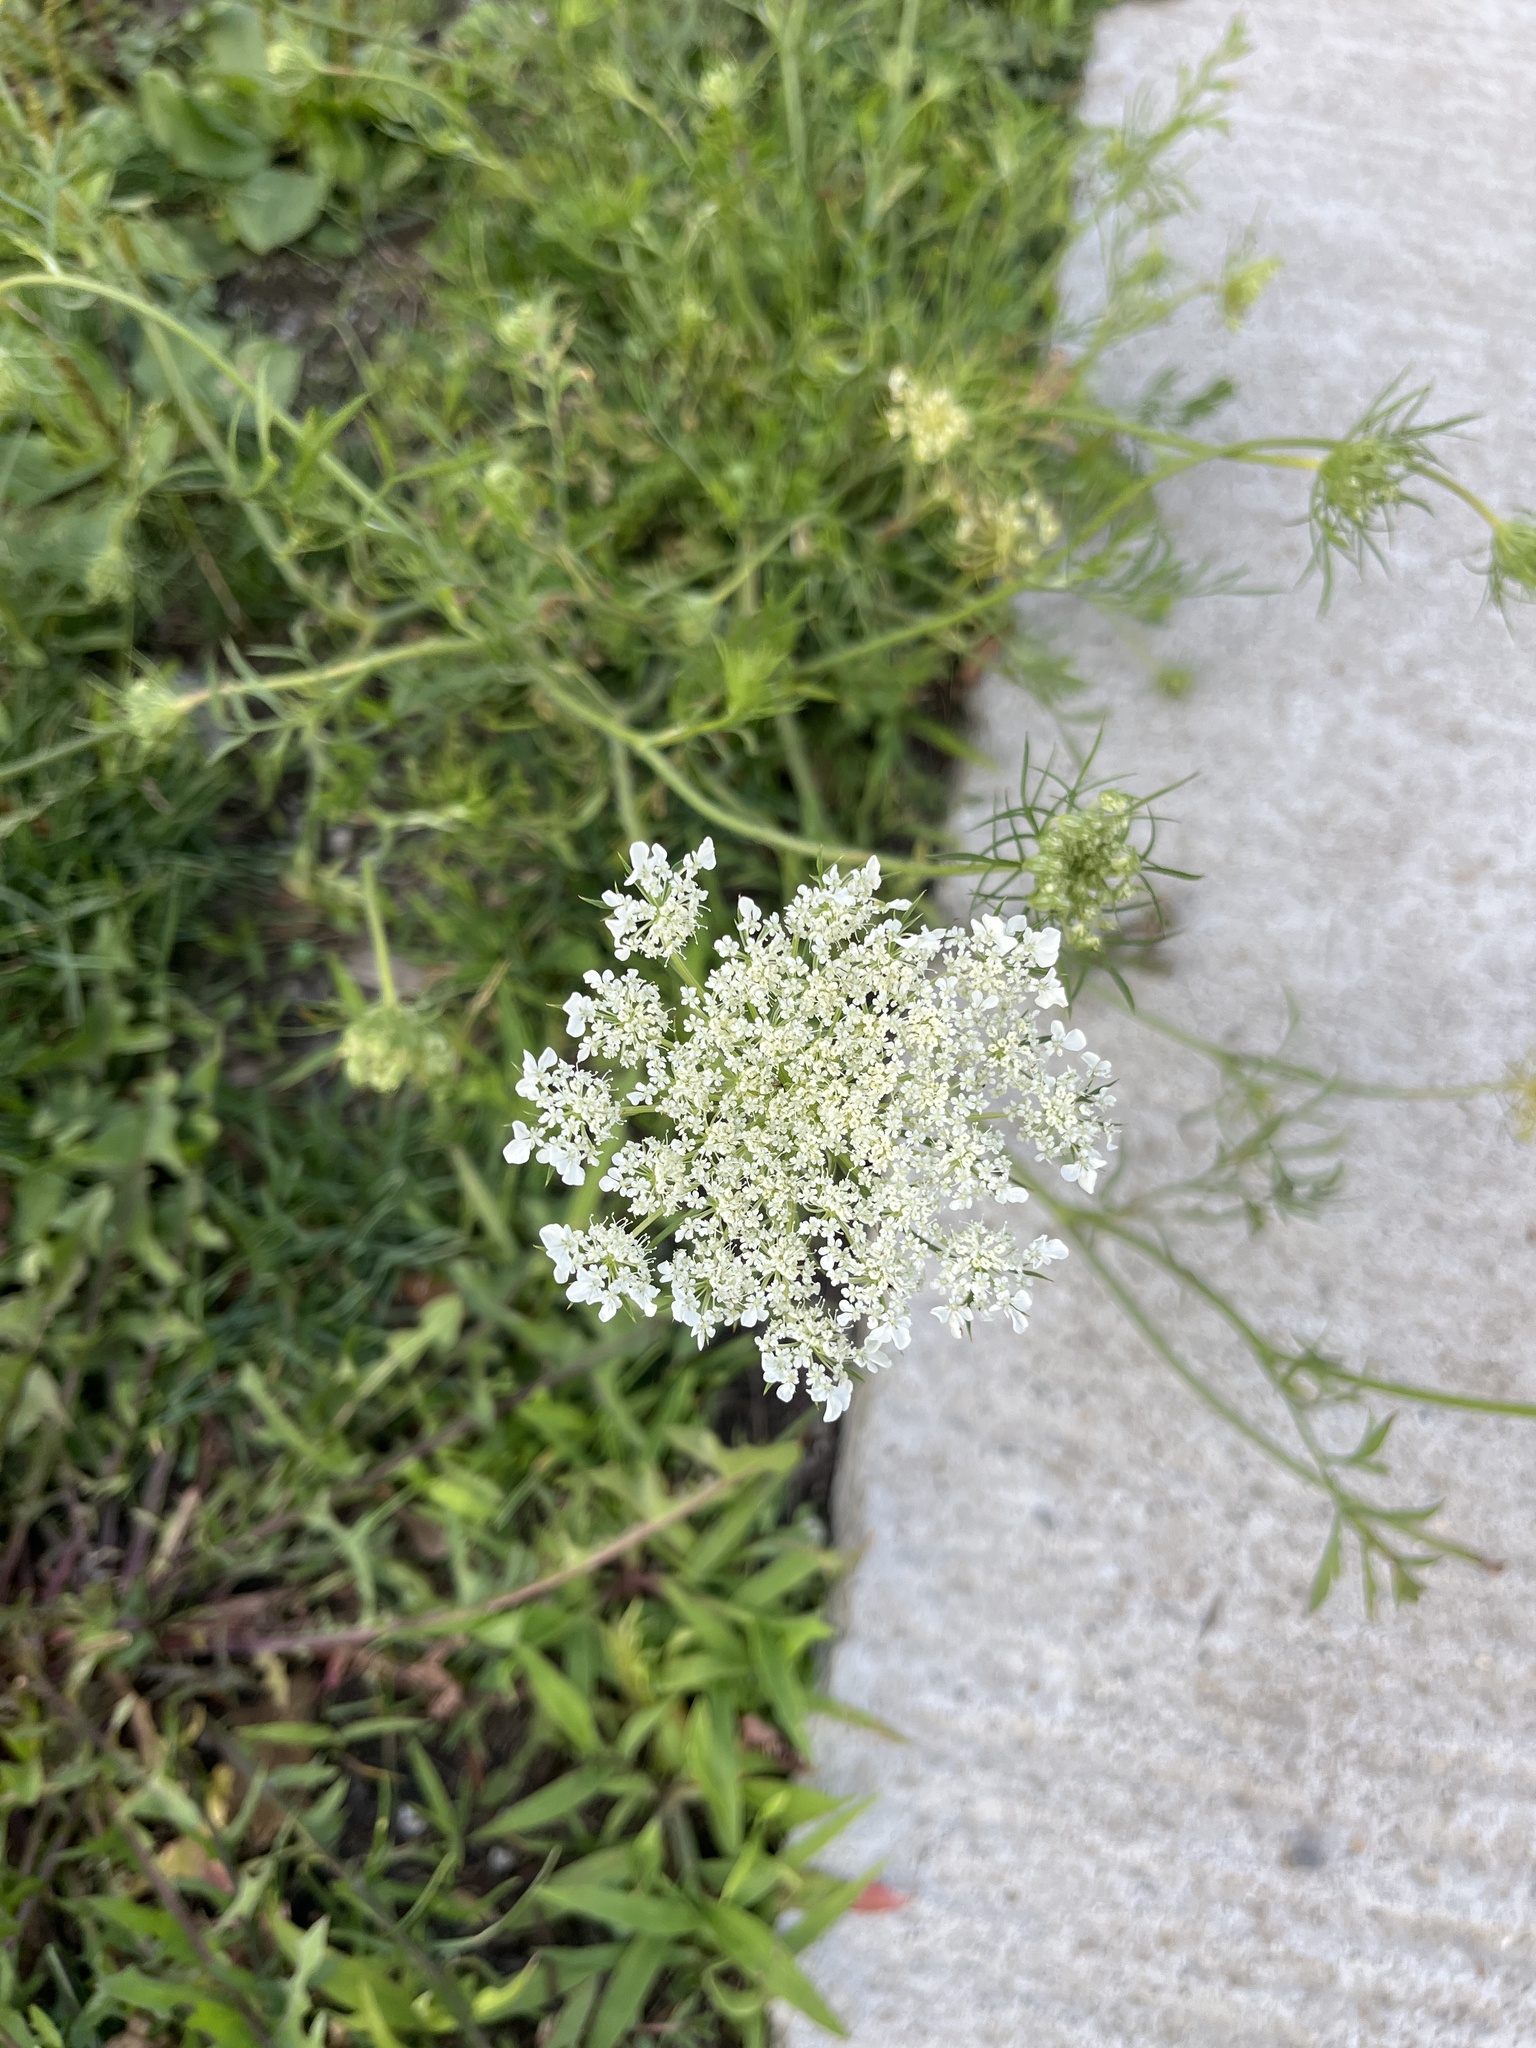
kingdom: Plantae
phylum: Tracheophyta
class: Magnoliopsida
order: Apiales
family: Apiaceae
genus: Daucus
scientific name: Daucus carota
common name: Wild carrot
